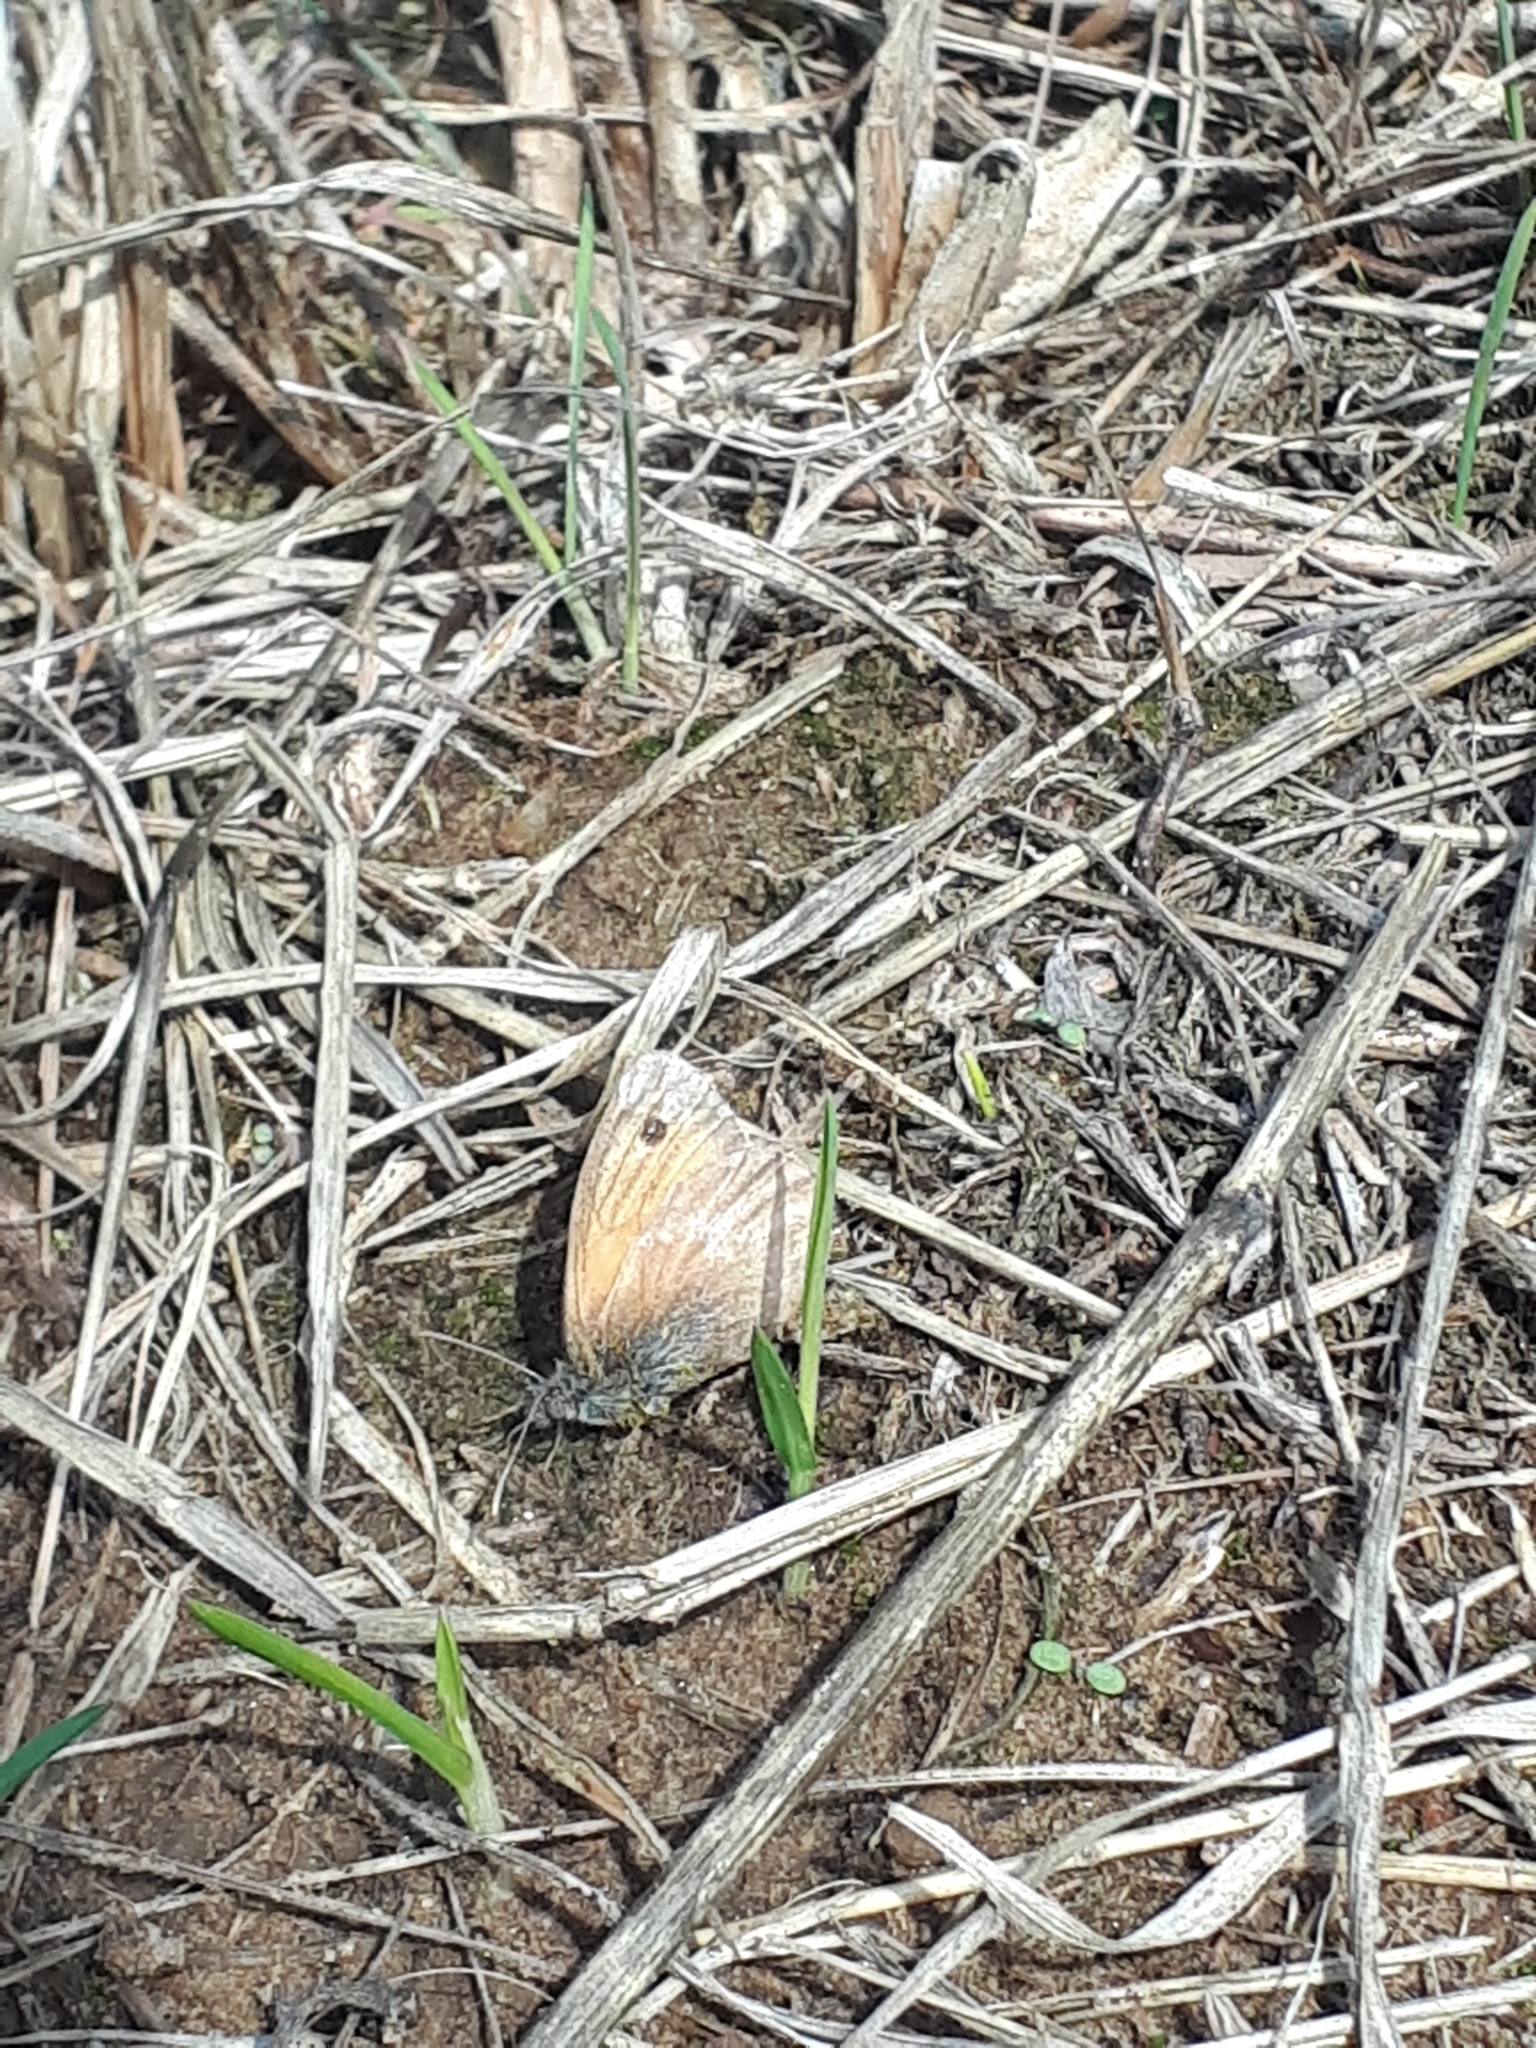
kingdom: Animalia
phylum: Arthropoda
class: Insecta
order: Lepidoptera
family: Nymphalidae
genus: Coenonympha
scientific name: Coenonympha pamphilus
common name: Small heath
